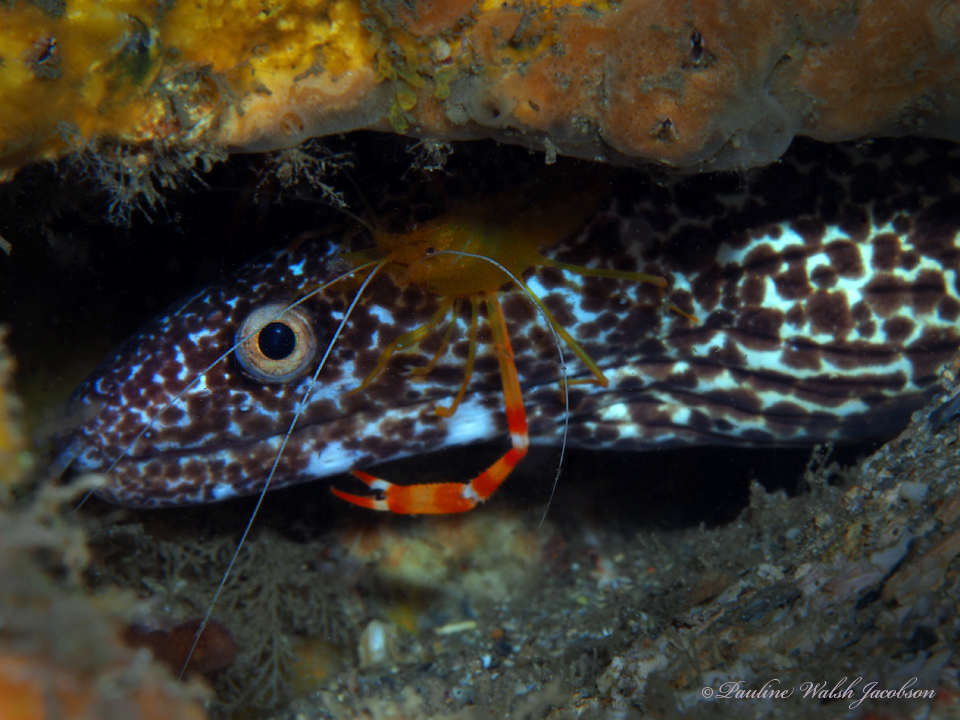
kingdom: Animalia
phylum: Chordata
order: Anguilliformes
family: Muraenidae
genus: Gymnothorax
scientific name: Gymnothorax moringa
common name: Spotted moray
